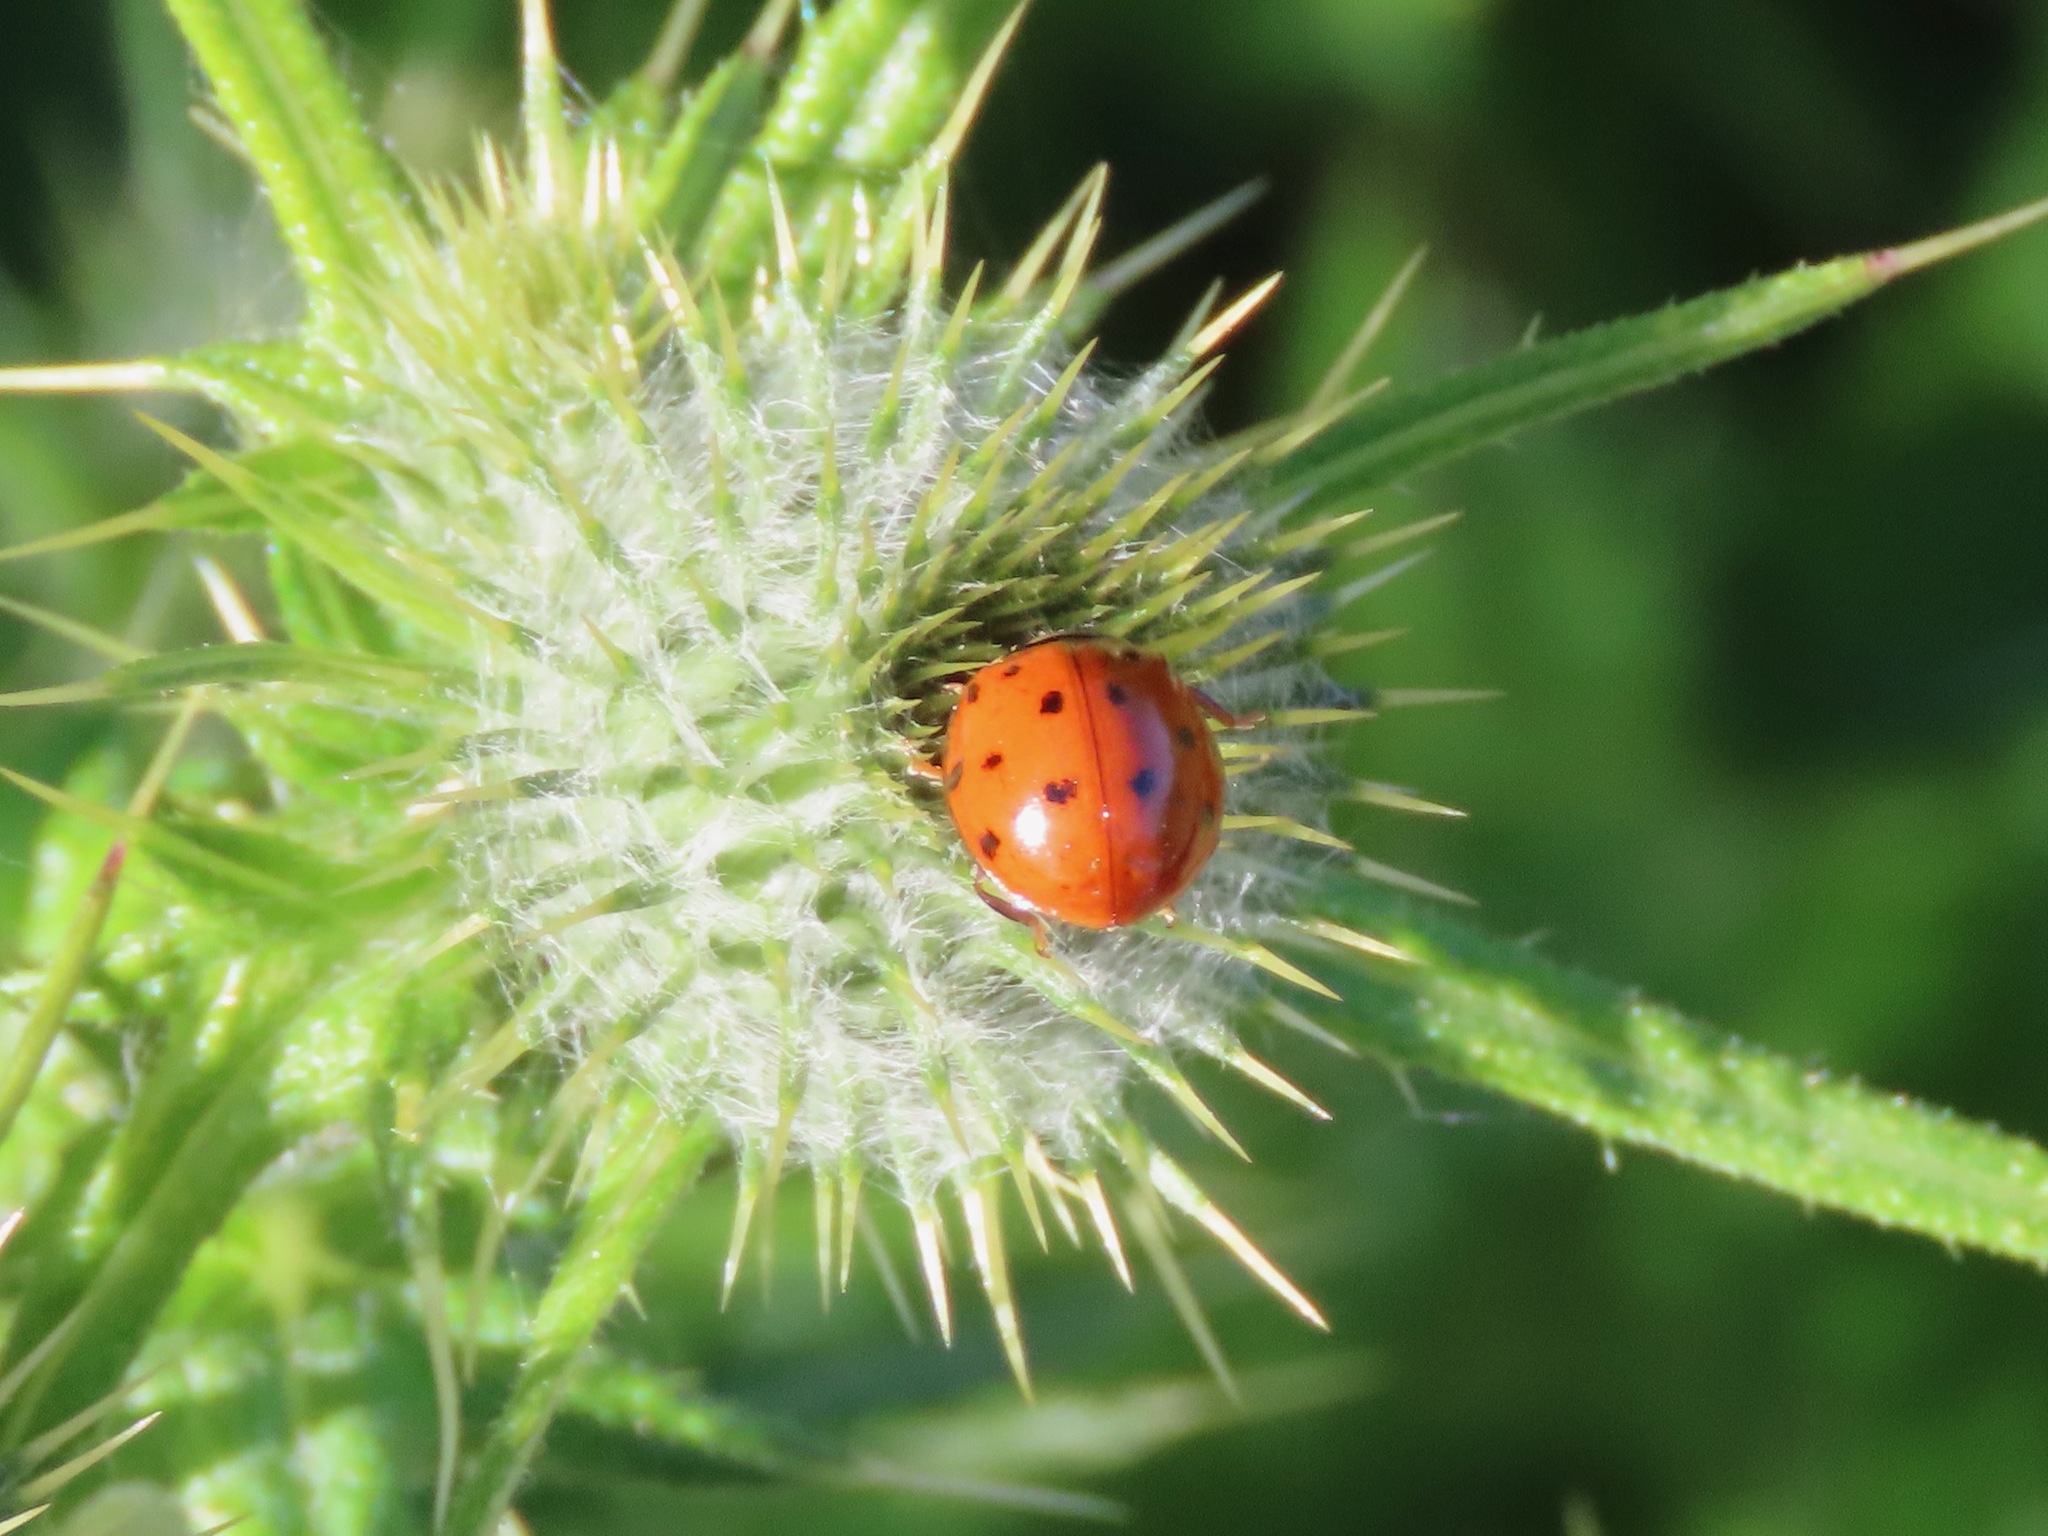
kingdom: Animalia
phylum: Arthropoda
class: Insecta
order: Coleoptera
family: Coccinellidae
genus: Harmonia
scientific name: Harmonia axyridis
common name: Harlequin ladybird
